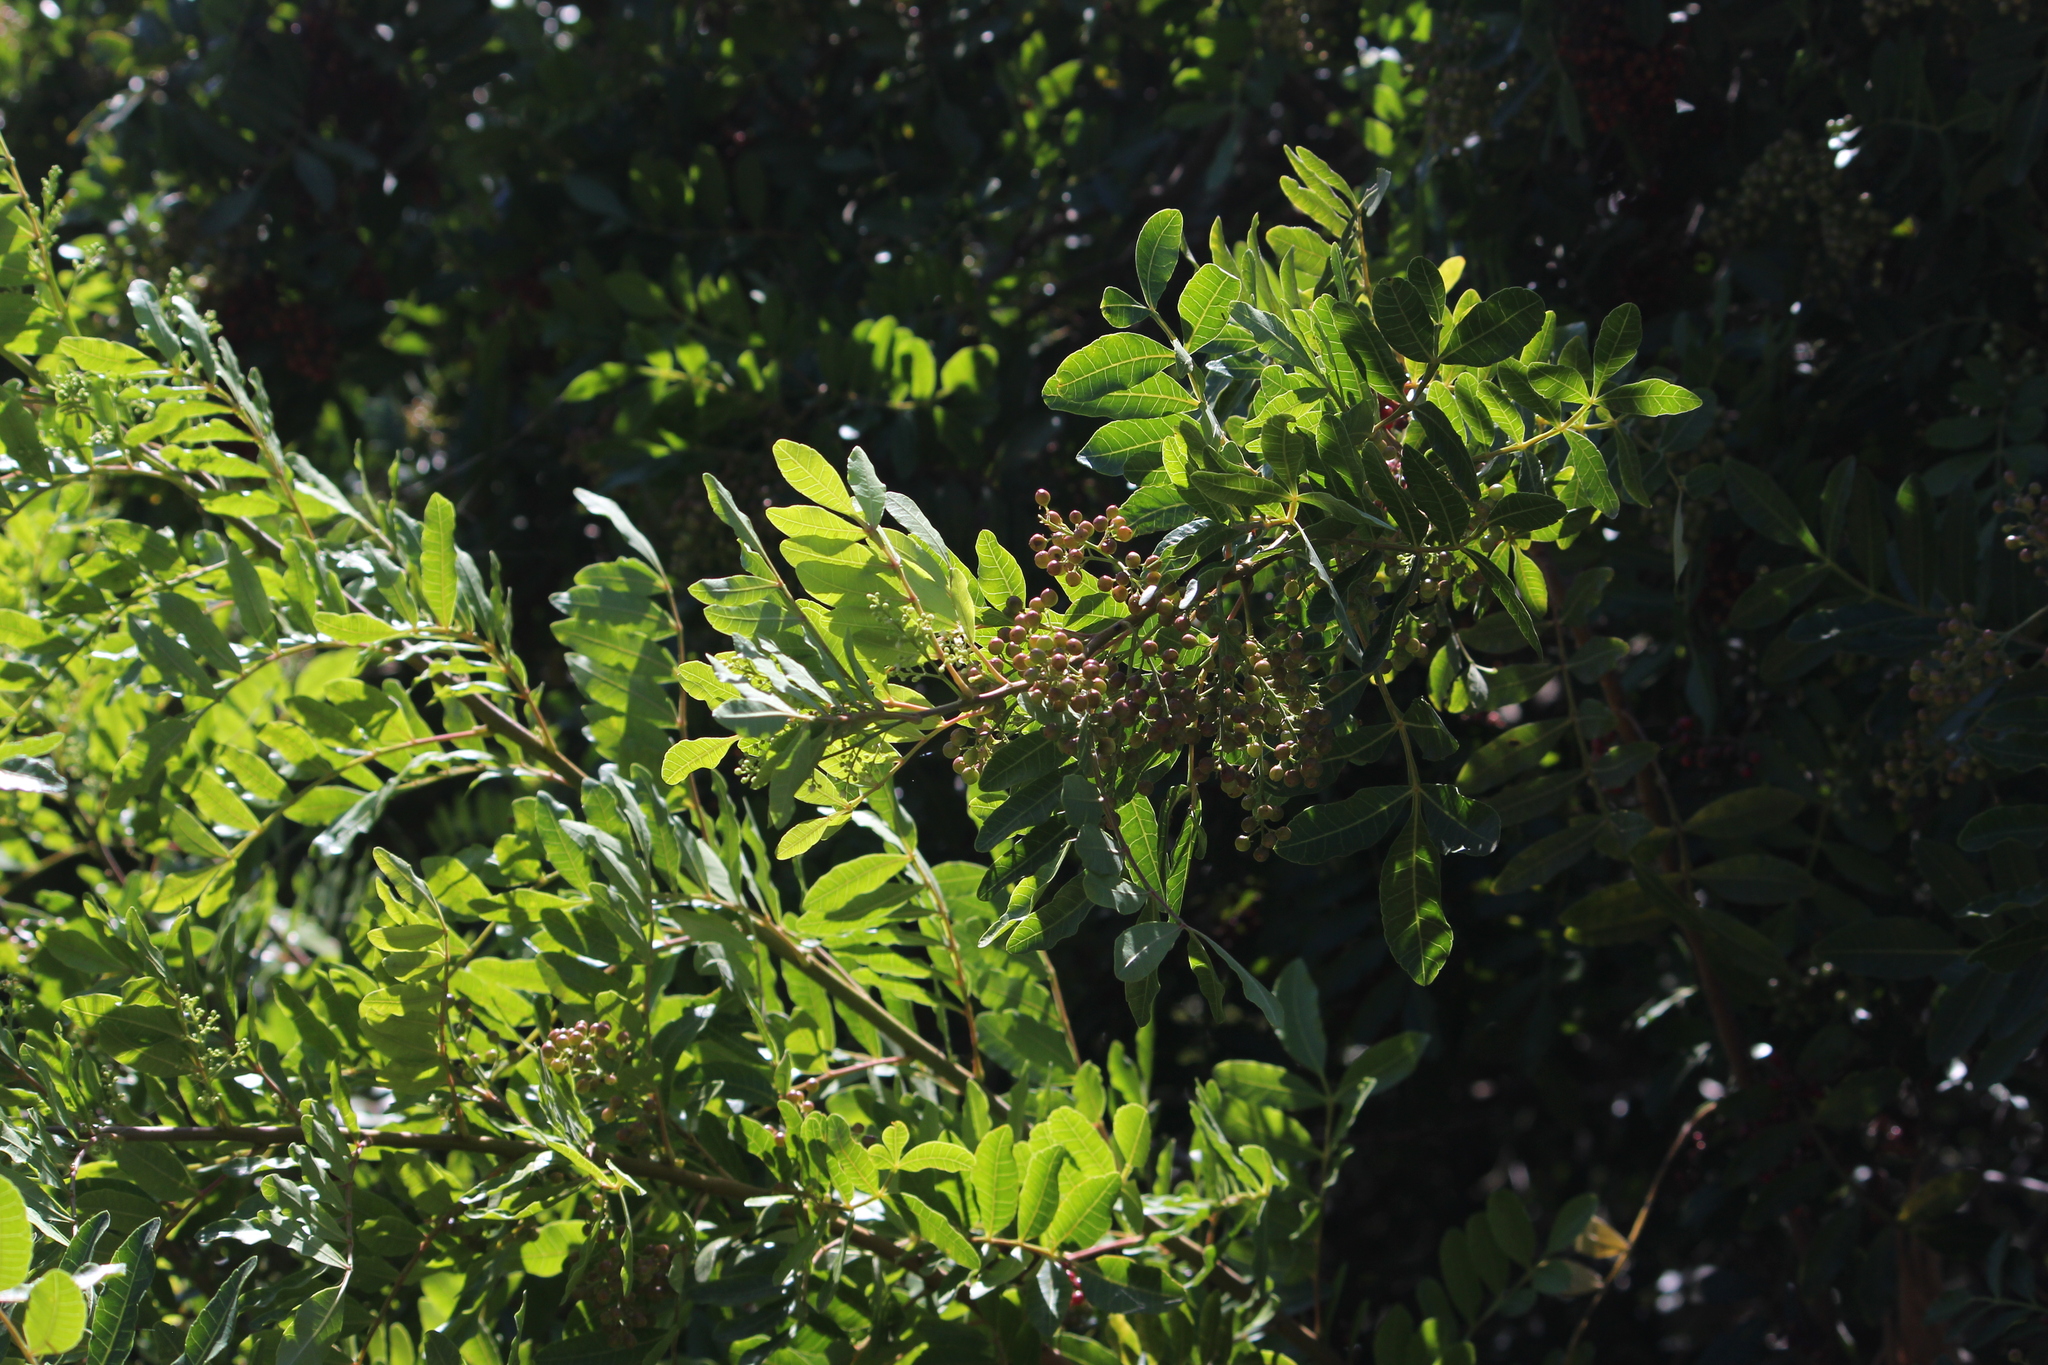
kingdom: Plantae
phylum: Tracheophyta
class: Magnoliopsida
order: Sapindales
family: Anacardiaceae
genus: Schinus
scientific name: Schinus terebinthifolia
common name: Brazilian peppertree
